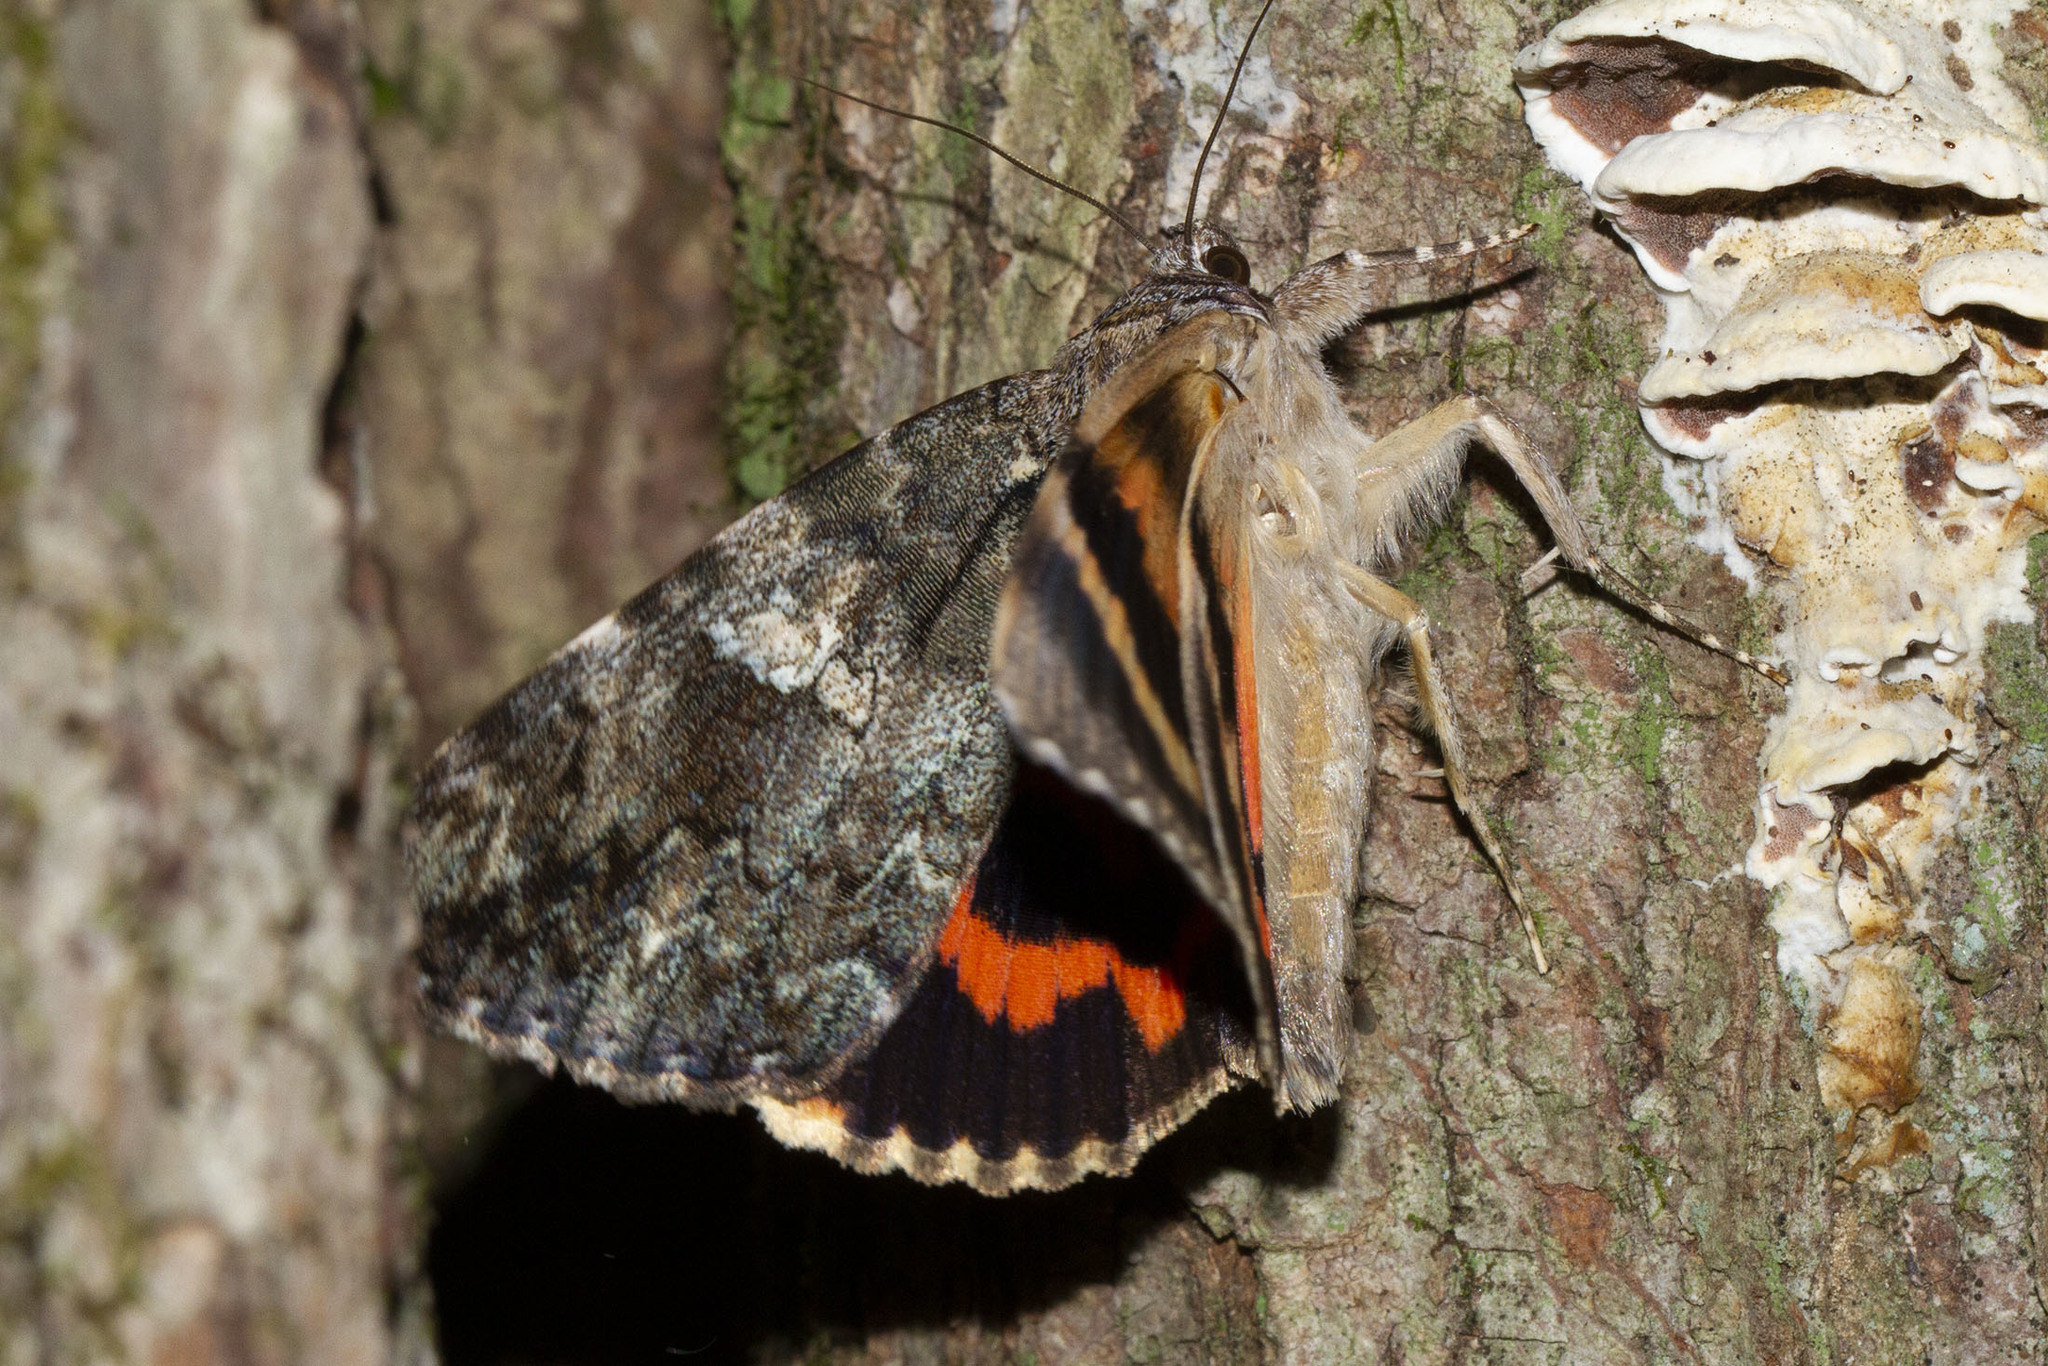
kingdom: Animalia
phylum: Arthropoda
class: Insecta
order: Lepidoptera
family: Erebidae
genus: Catocala
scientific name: Catocala ilia
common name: Ilia underwing
